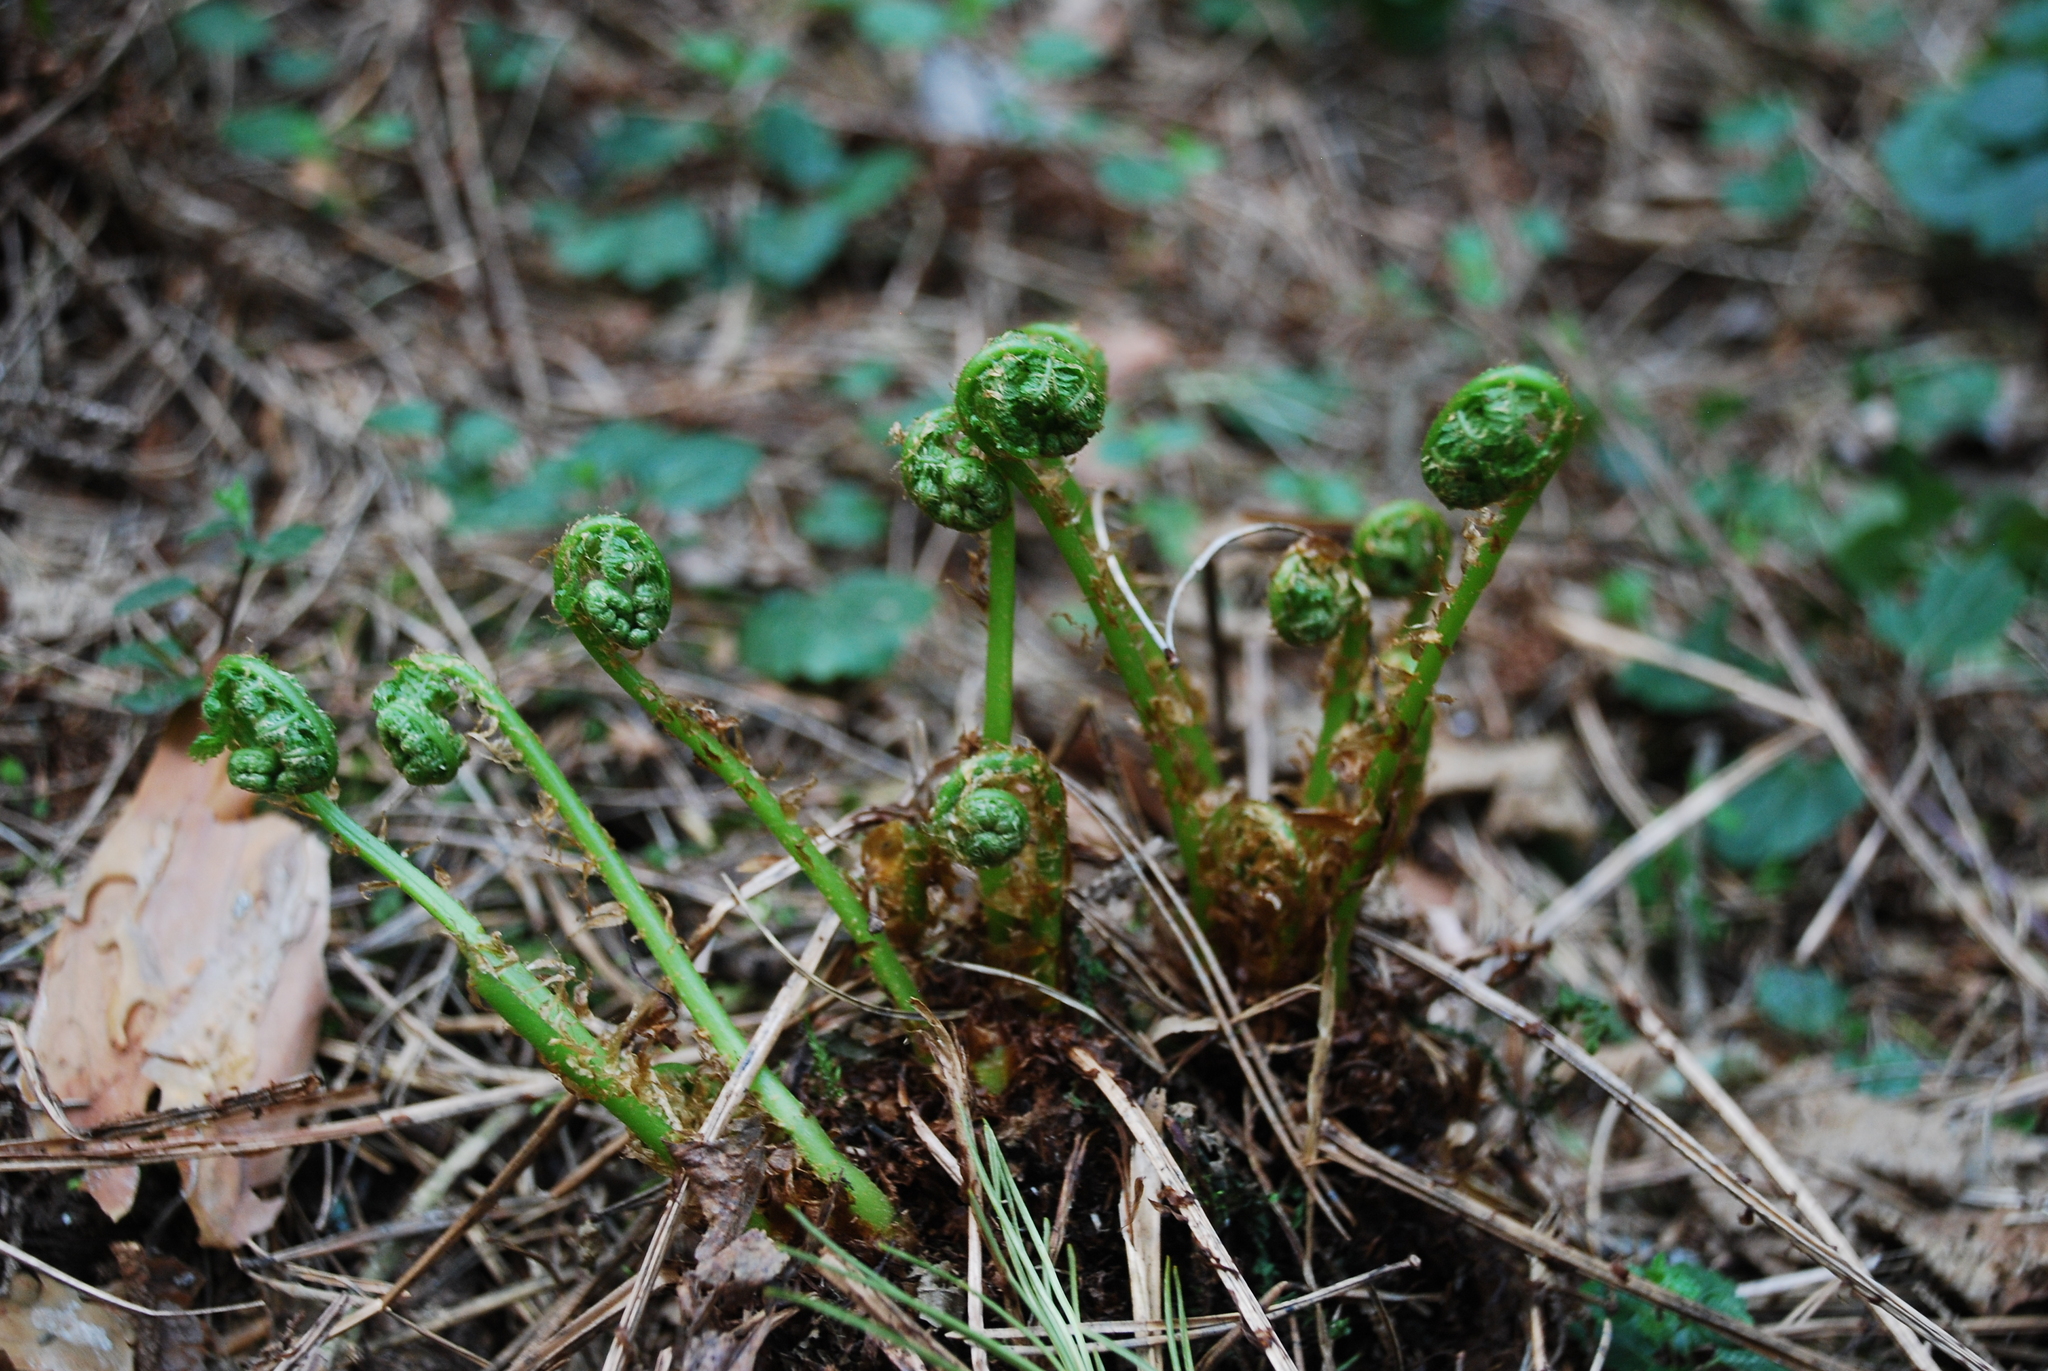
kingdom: Plantae
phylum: Tracheophyta
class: Polypodiopsida
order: Polypodiales
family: Dryopteridaceae
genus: Dryopteris
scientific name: Dryopteris carthusiana
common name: Narrow buckler-fern
